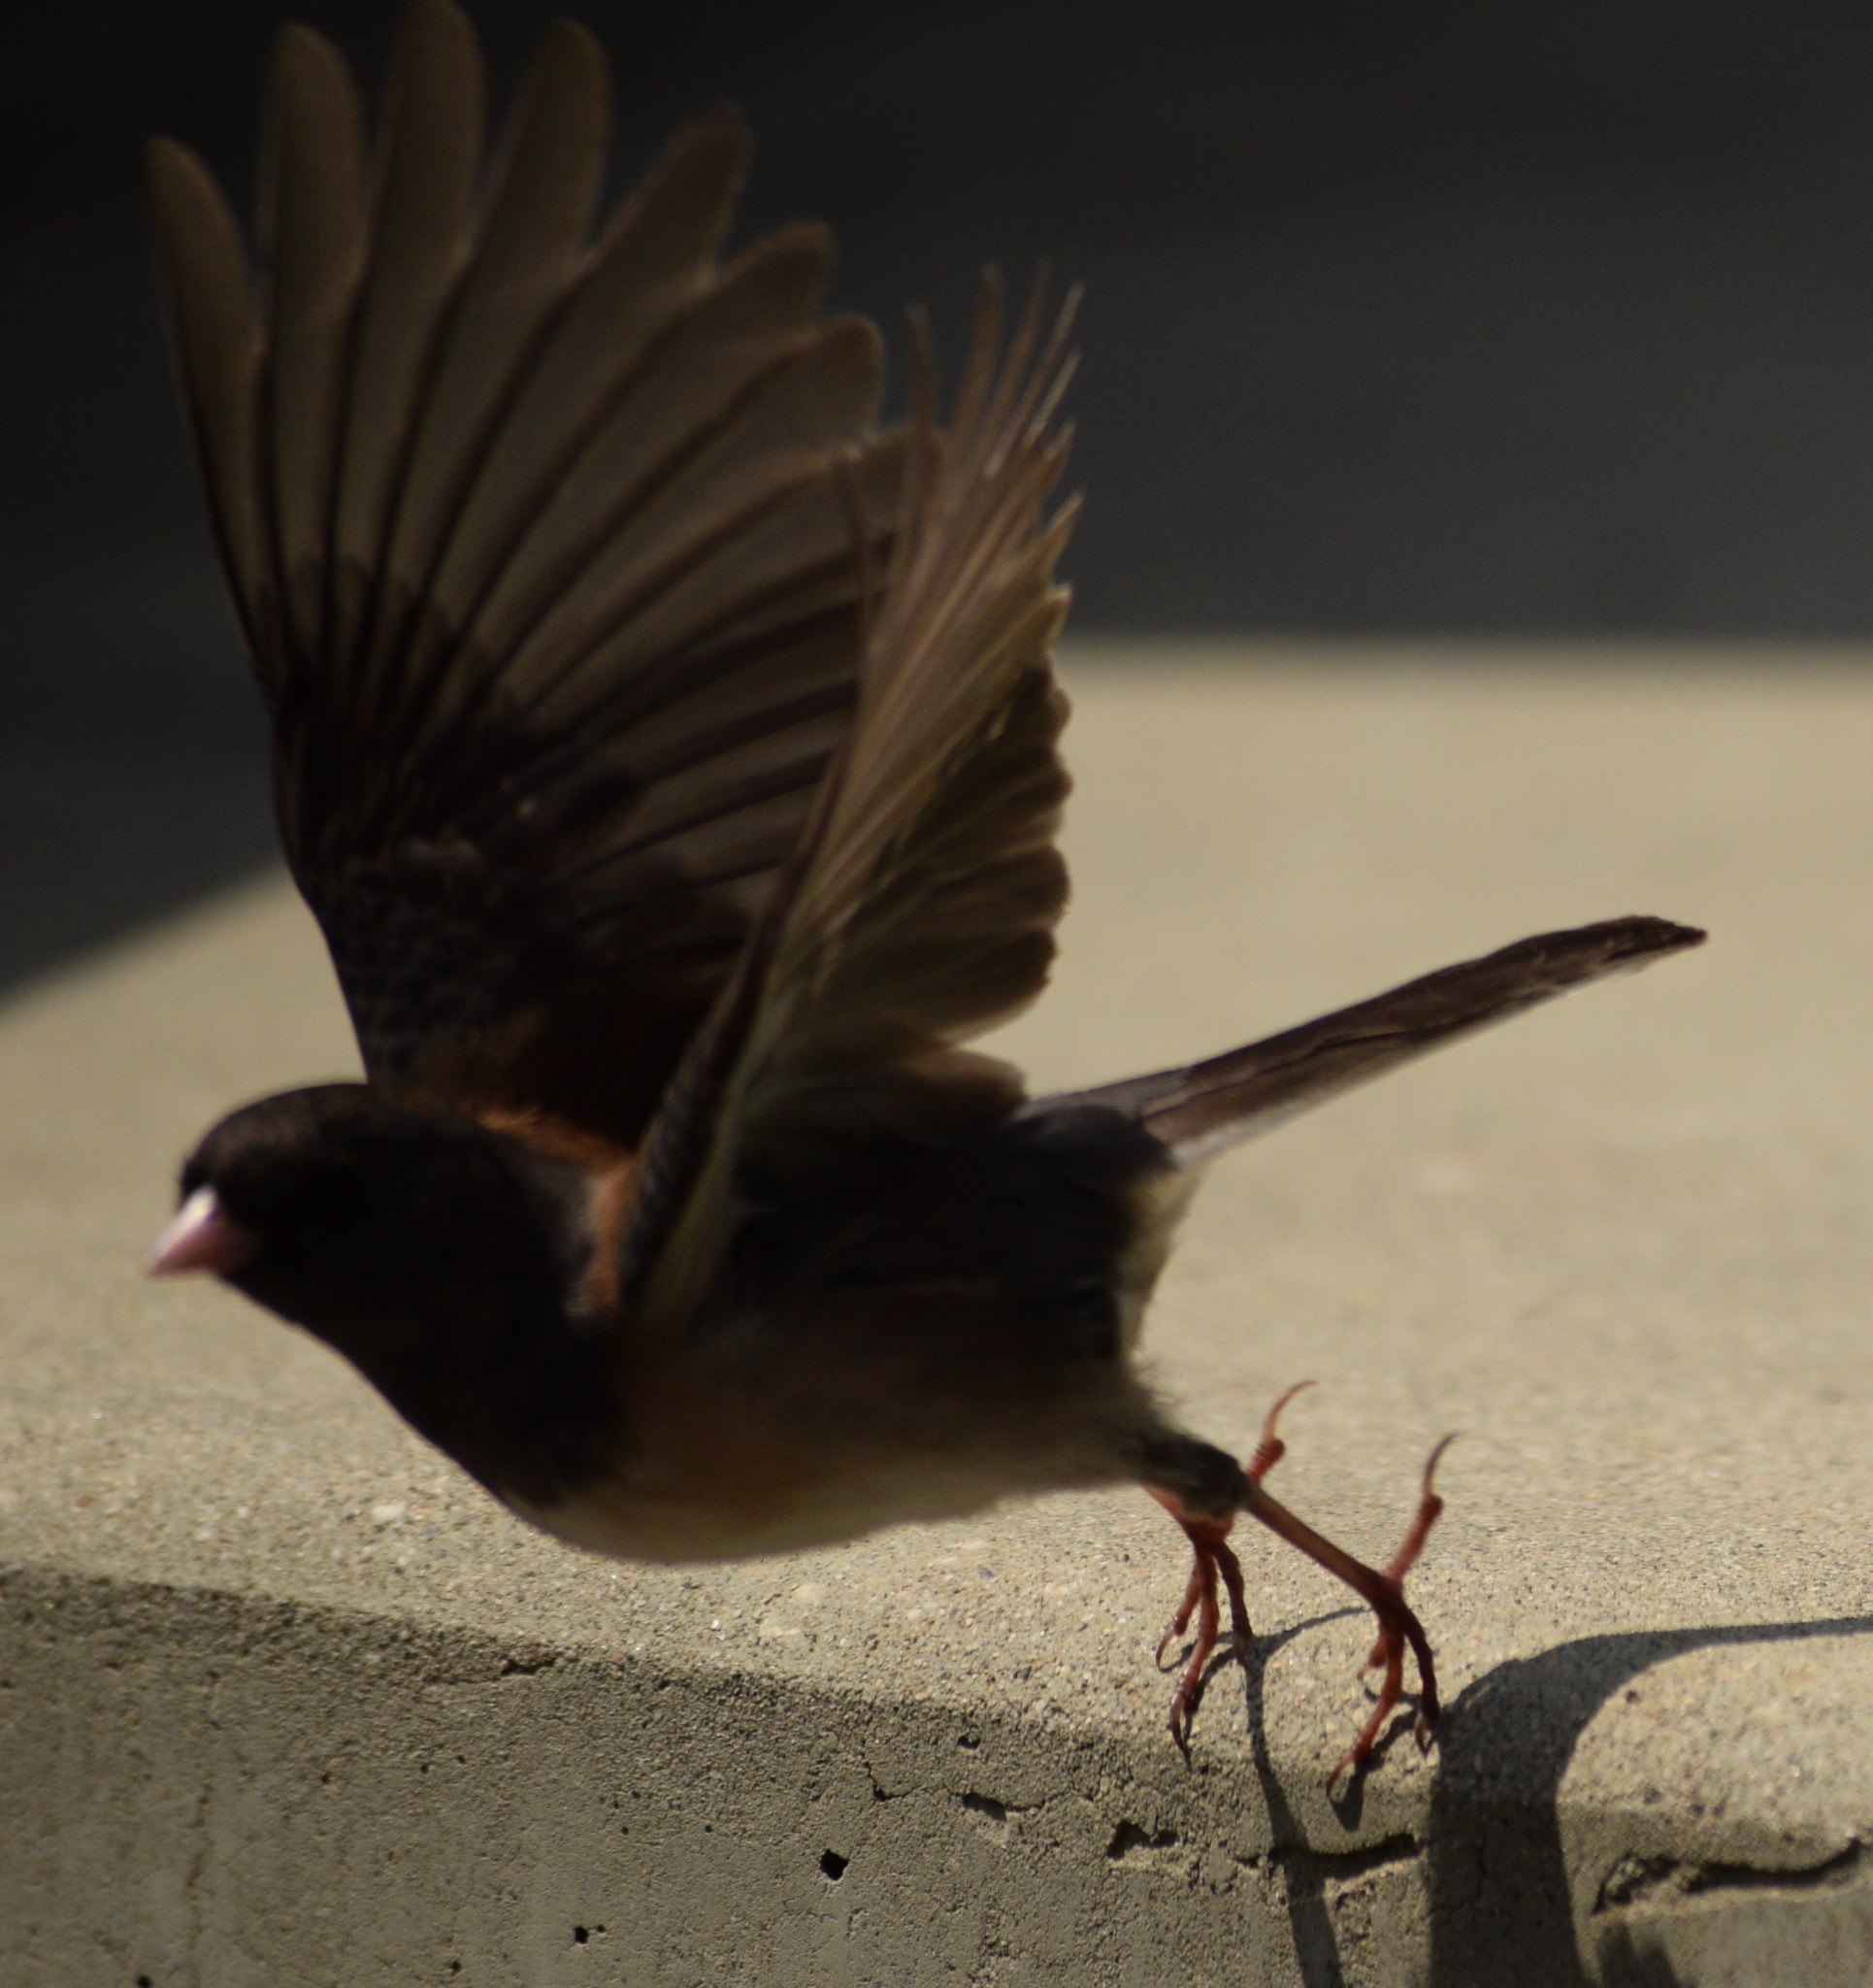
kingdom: Animalia
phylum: Chordata
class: Aves
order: Passeriformes
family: Passerellidae
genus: Junco
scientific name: Junco hyemalis
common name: Dark-eyed junco
